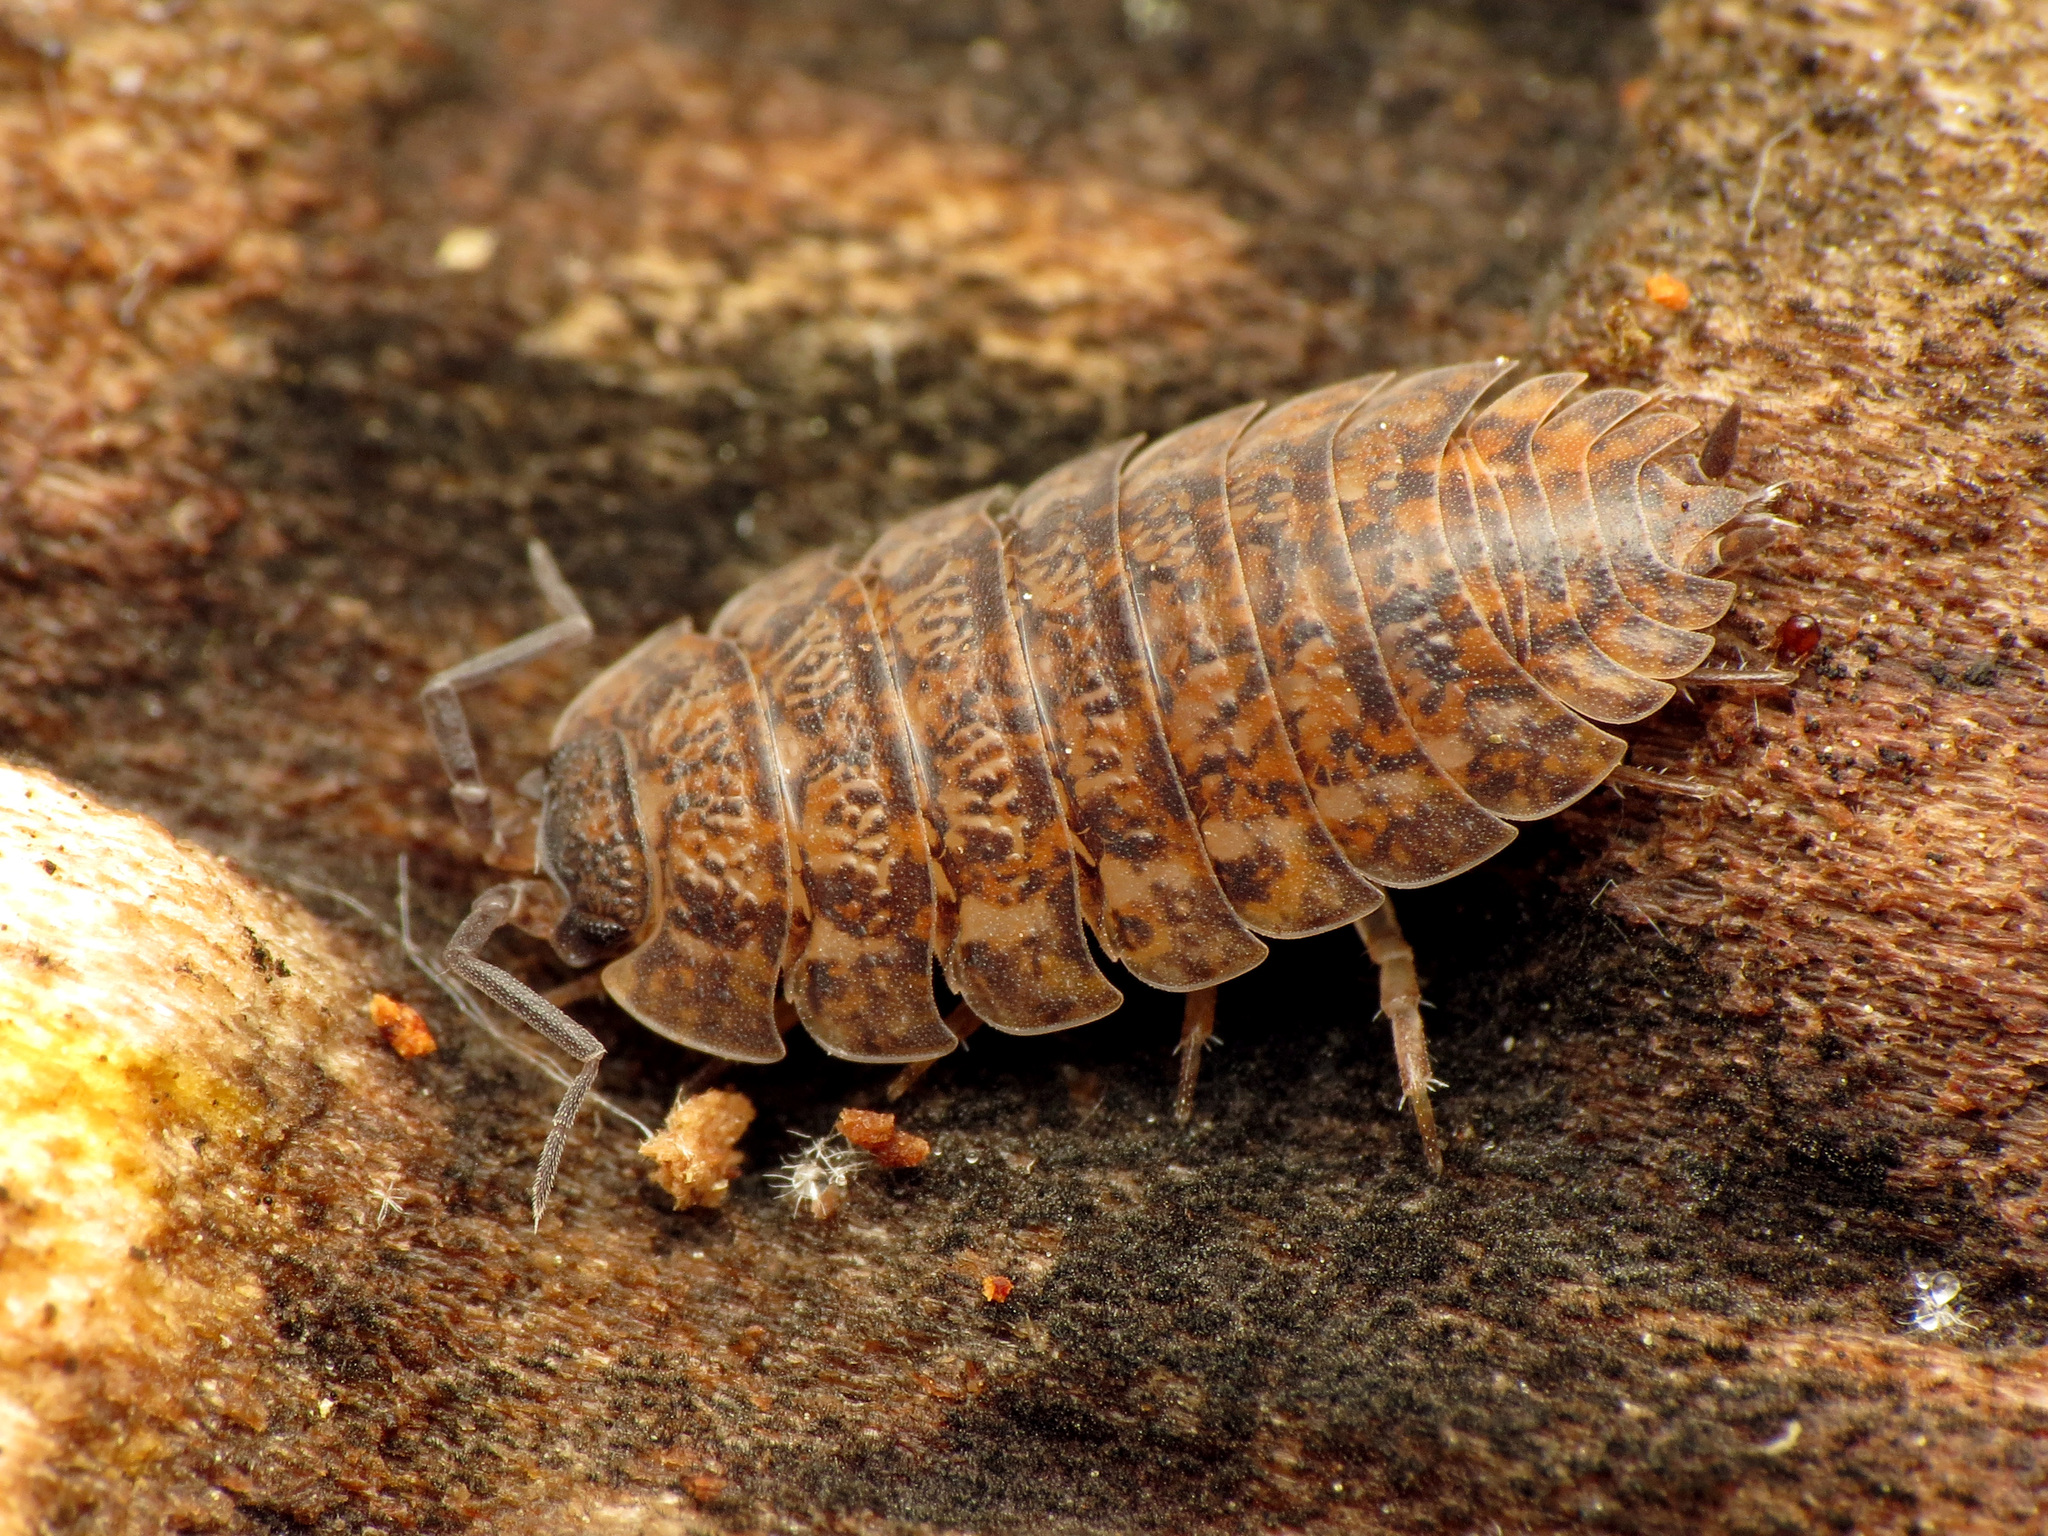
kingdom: Animalia
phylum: Arthropoda
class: Malacostraca
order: Isopoda
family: Trachelipodidae
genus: Trachelipus
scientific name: Trachelipus rathkii
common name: Isopod
